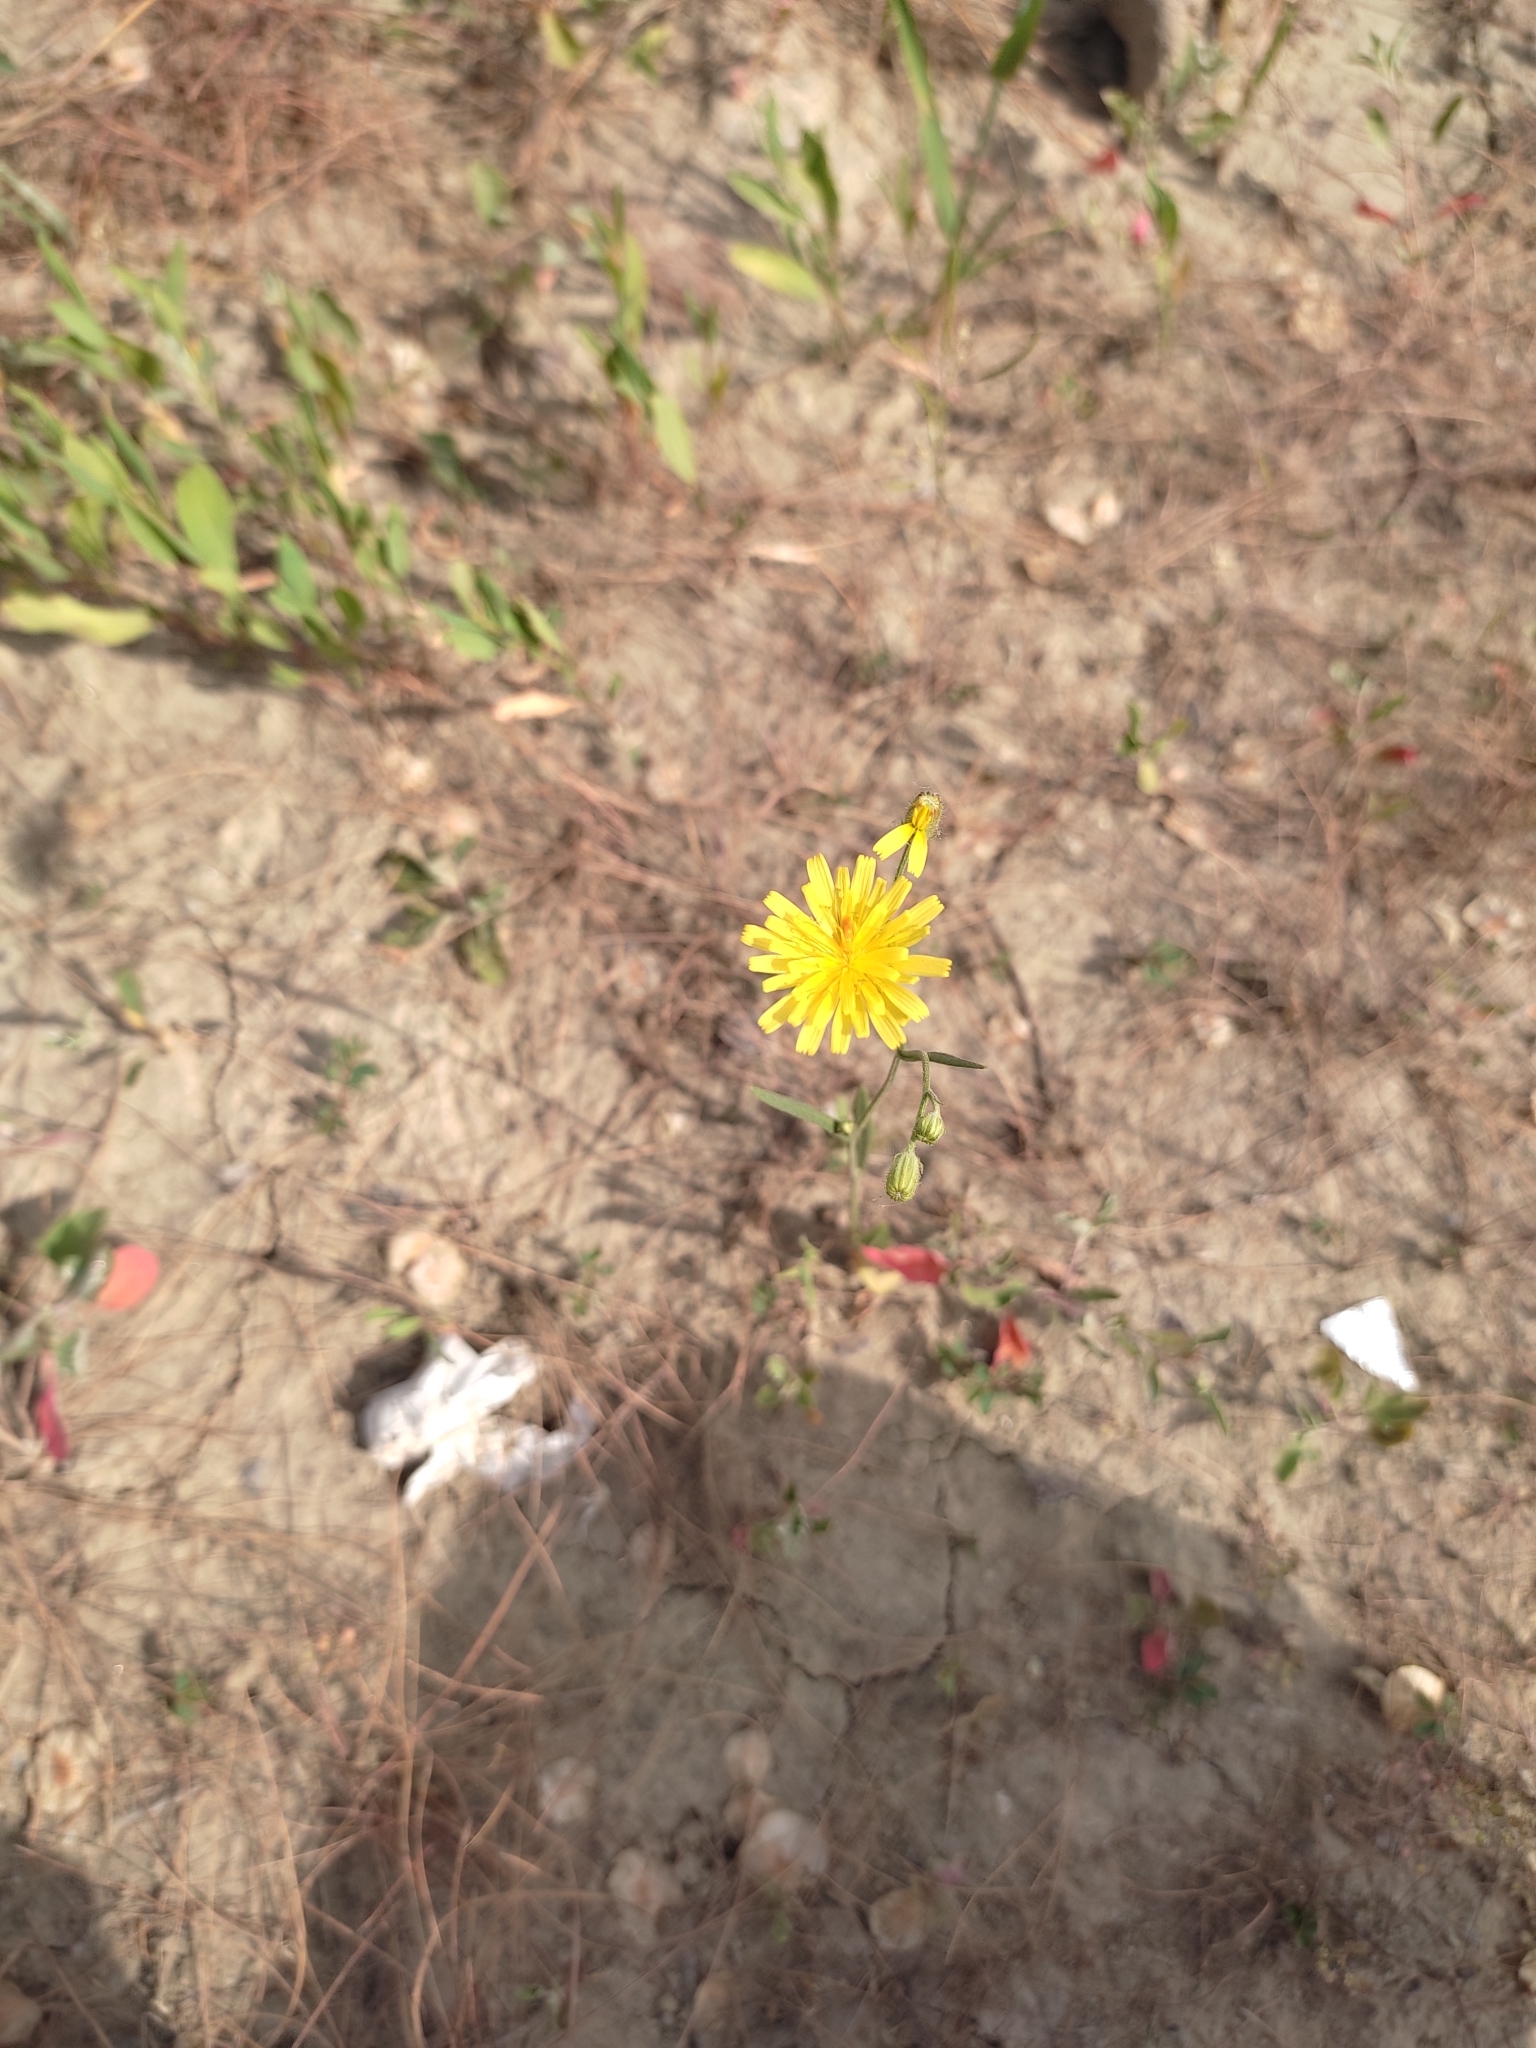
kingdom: Plantae
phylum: Tracheophyta
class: Magnoliopsida
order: Asterales
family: Asteraceae
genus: Crepis
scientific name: Crepis tectorum
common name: Narrow-leaved hawk's-beard
